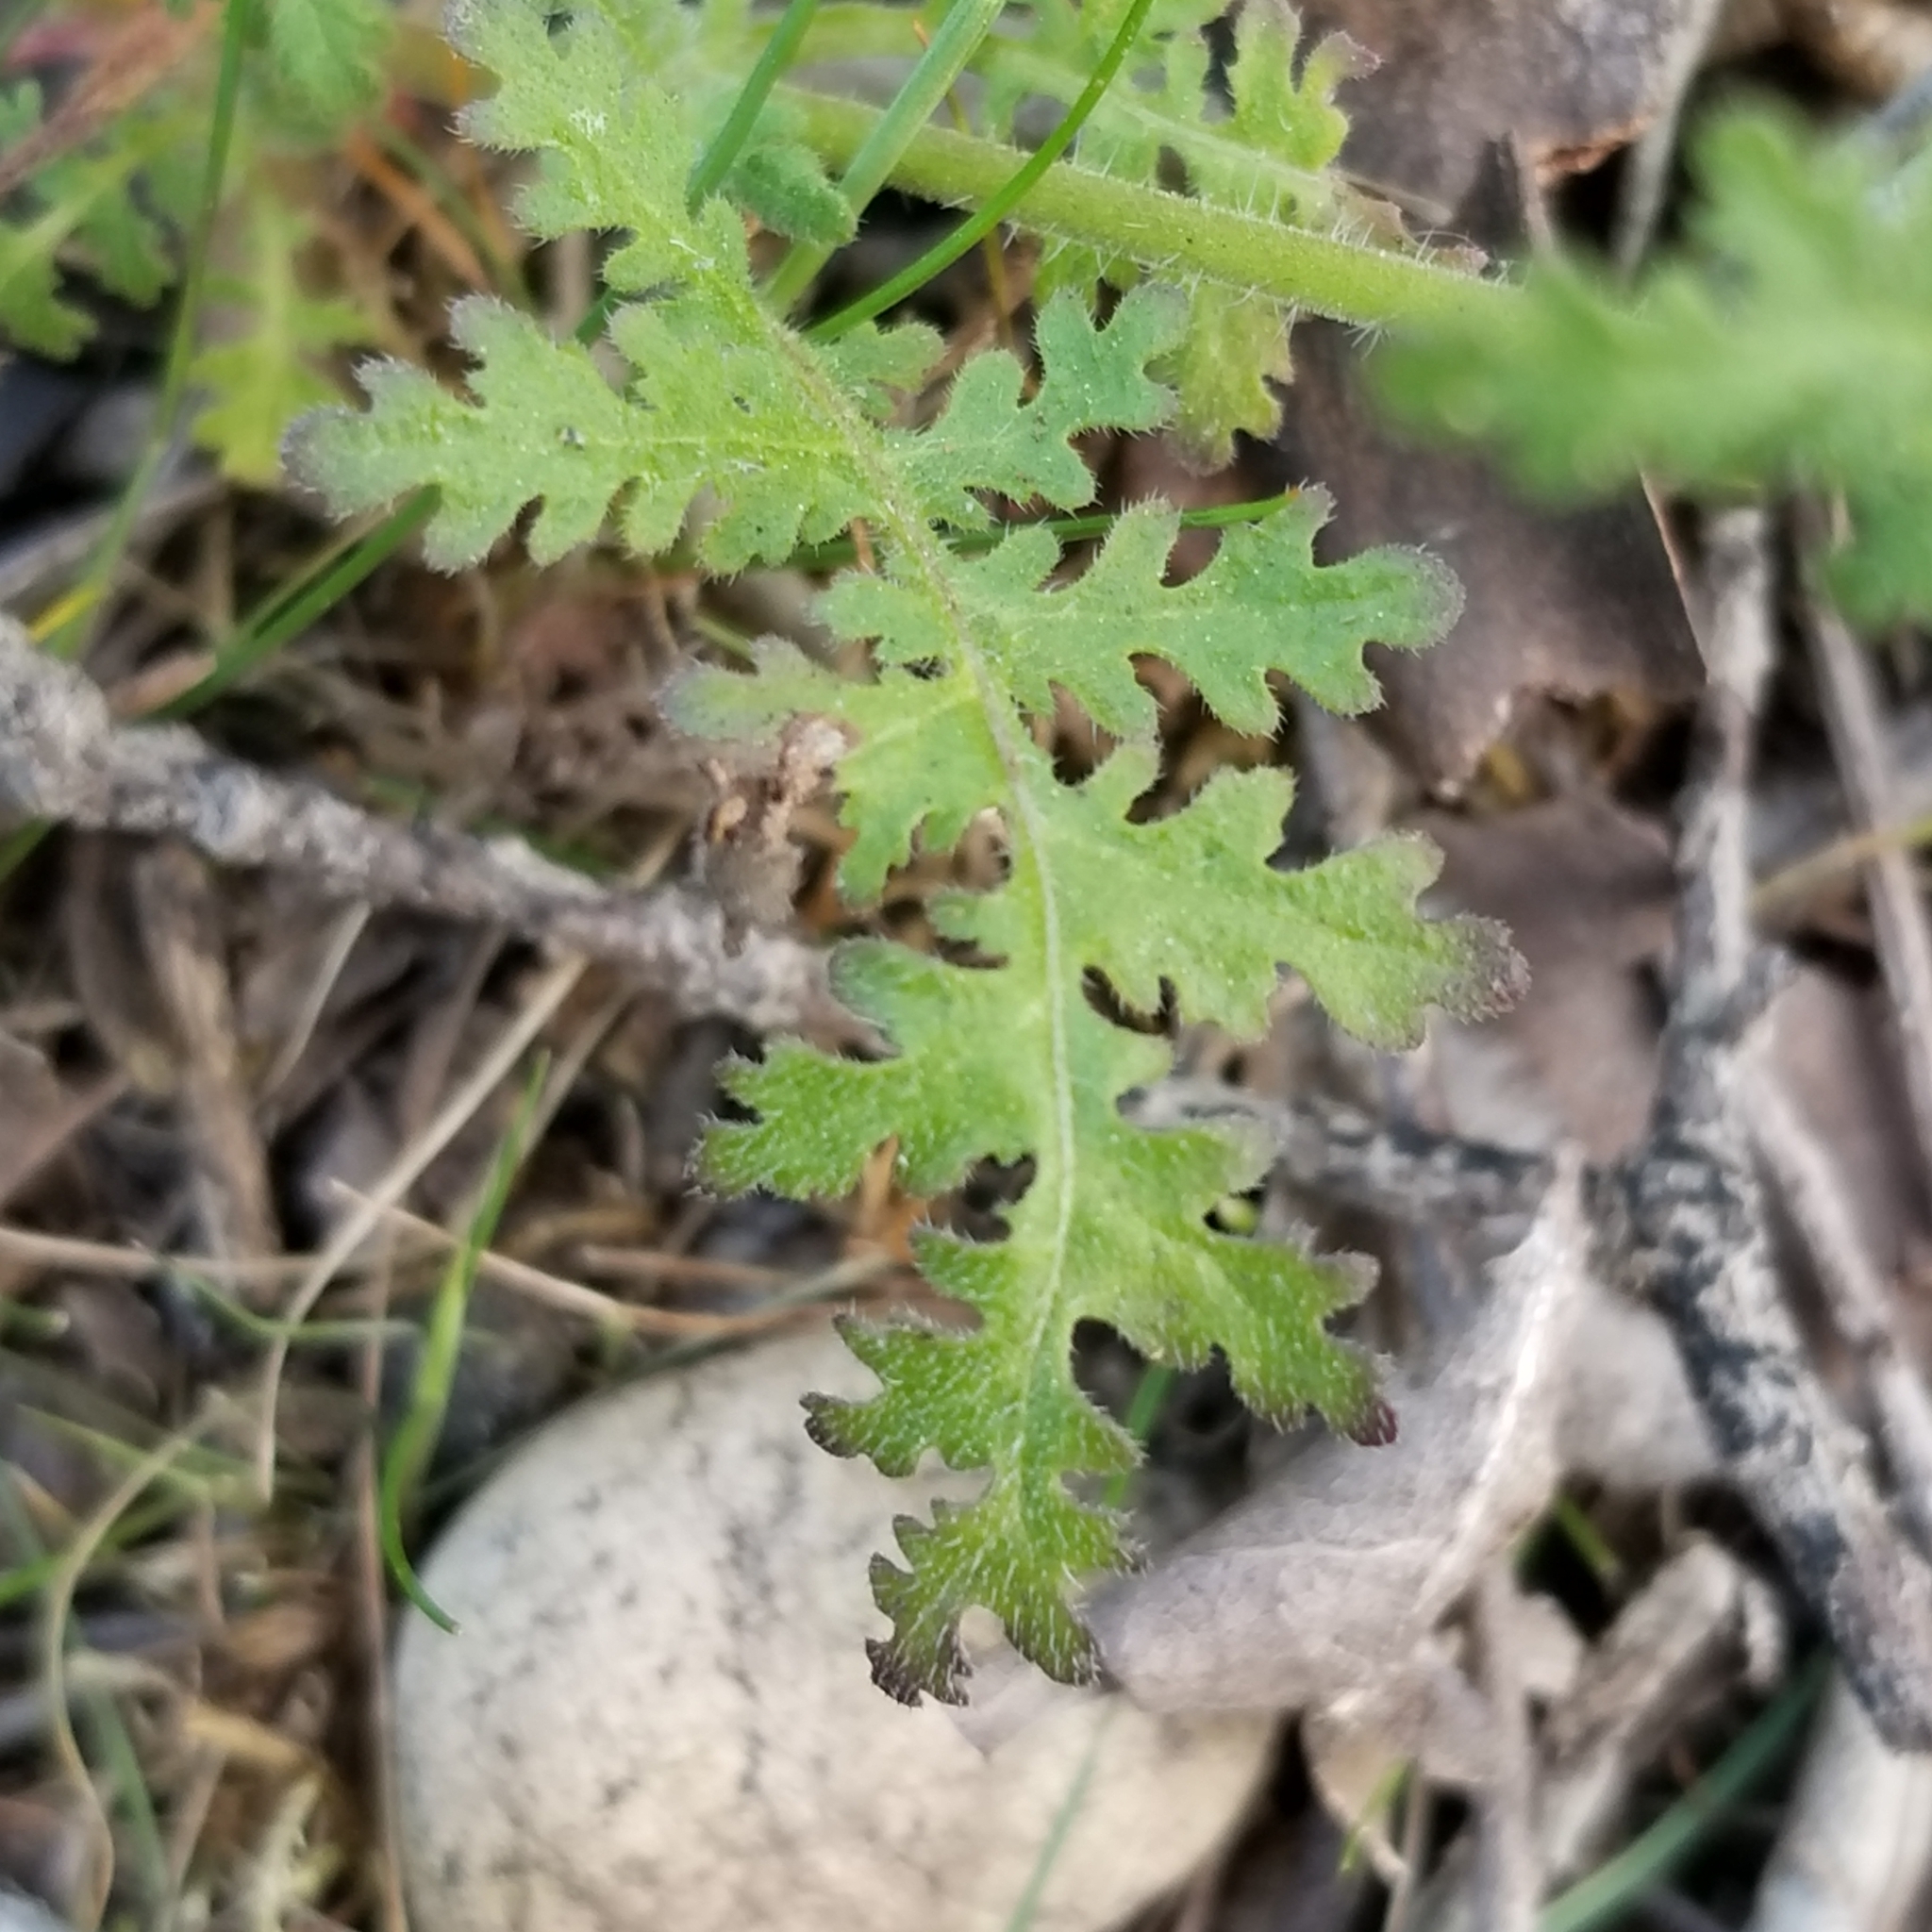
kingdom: Plantae
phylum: Tracheophyta
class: Magnoliopsida
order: Boraginales
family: Hydrophyllaceae
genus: Eucrypta
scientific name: Eucrypta chrysanthemifolia
